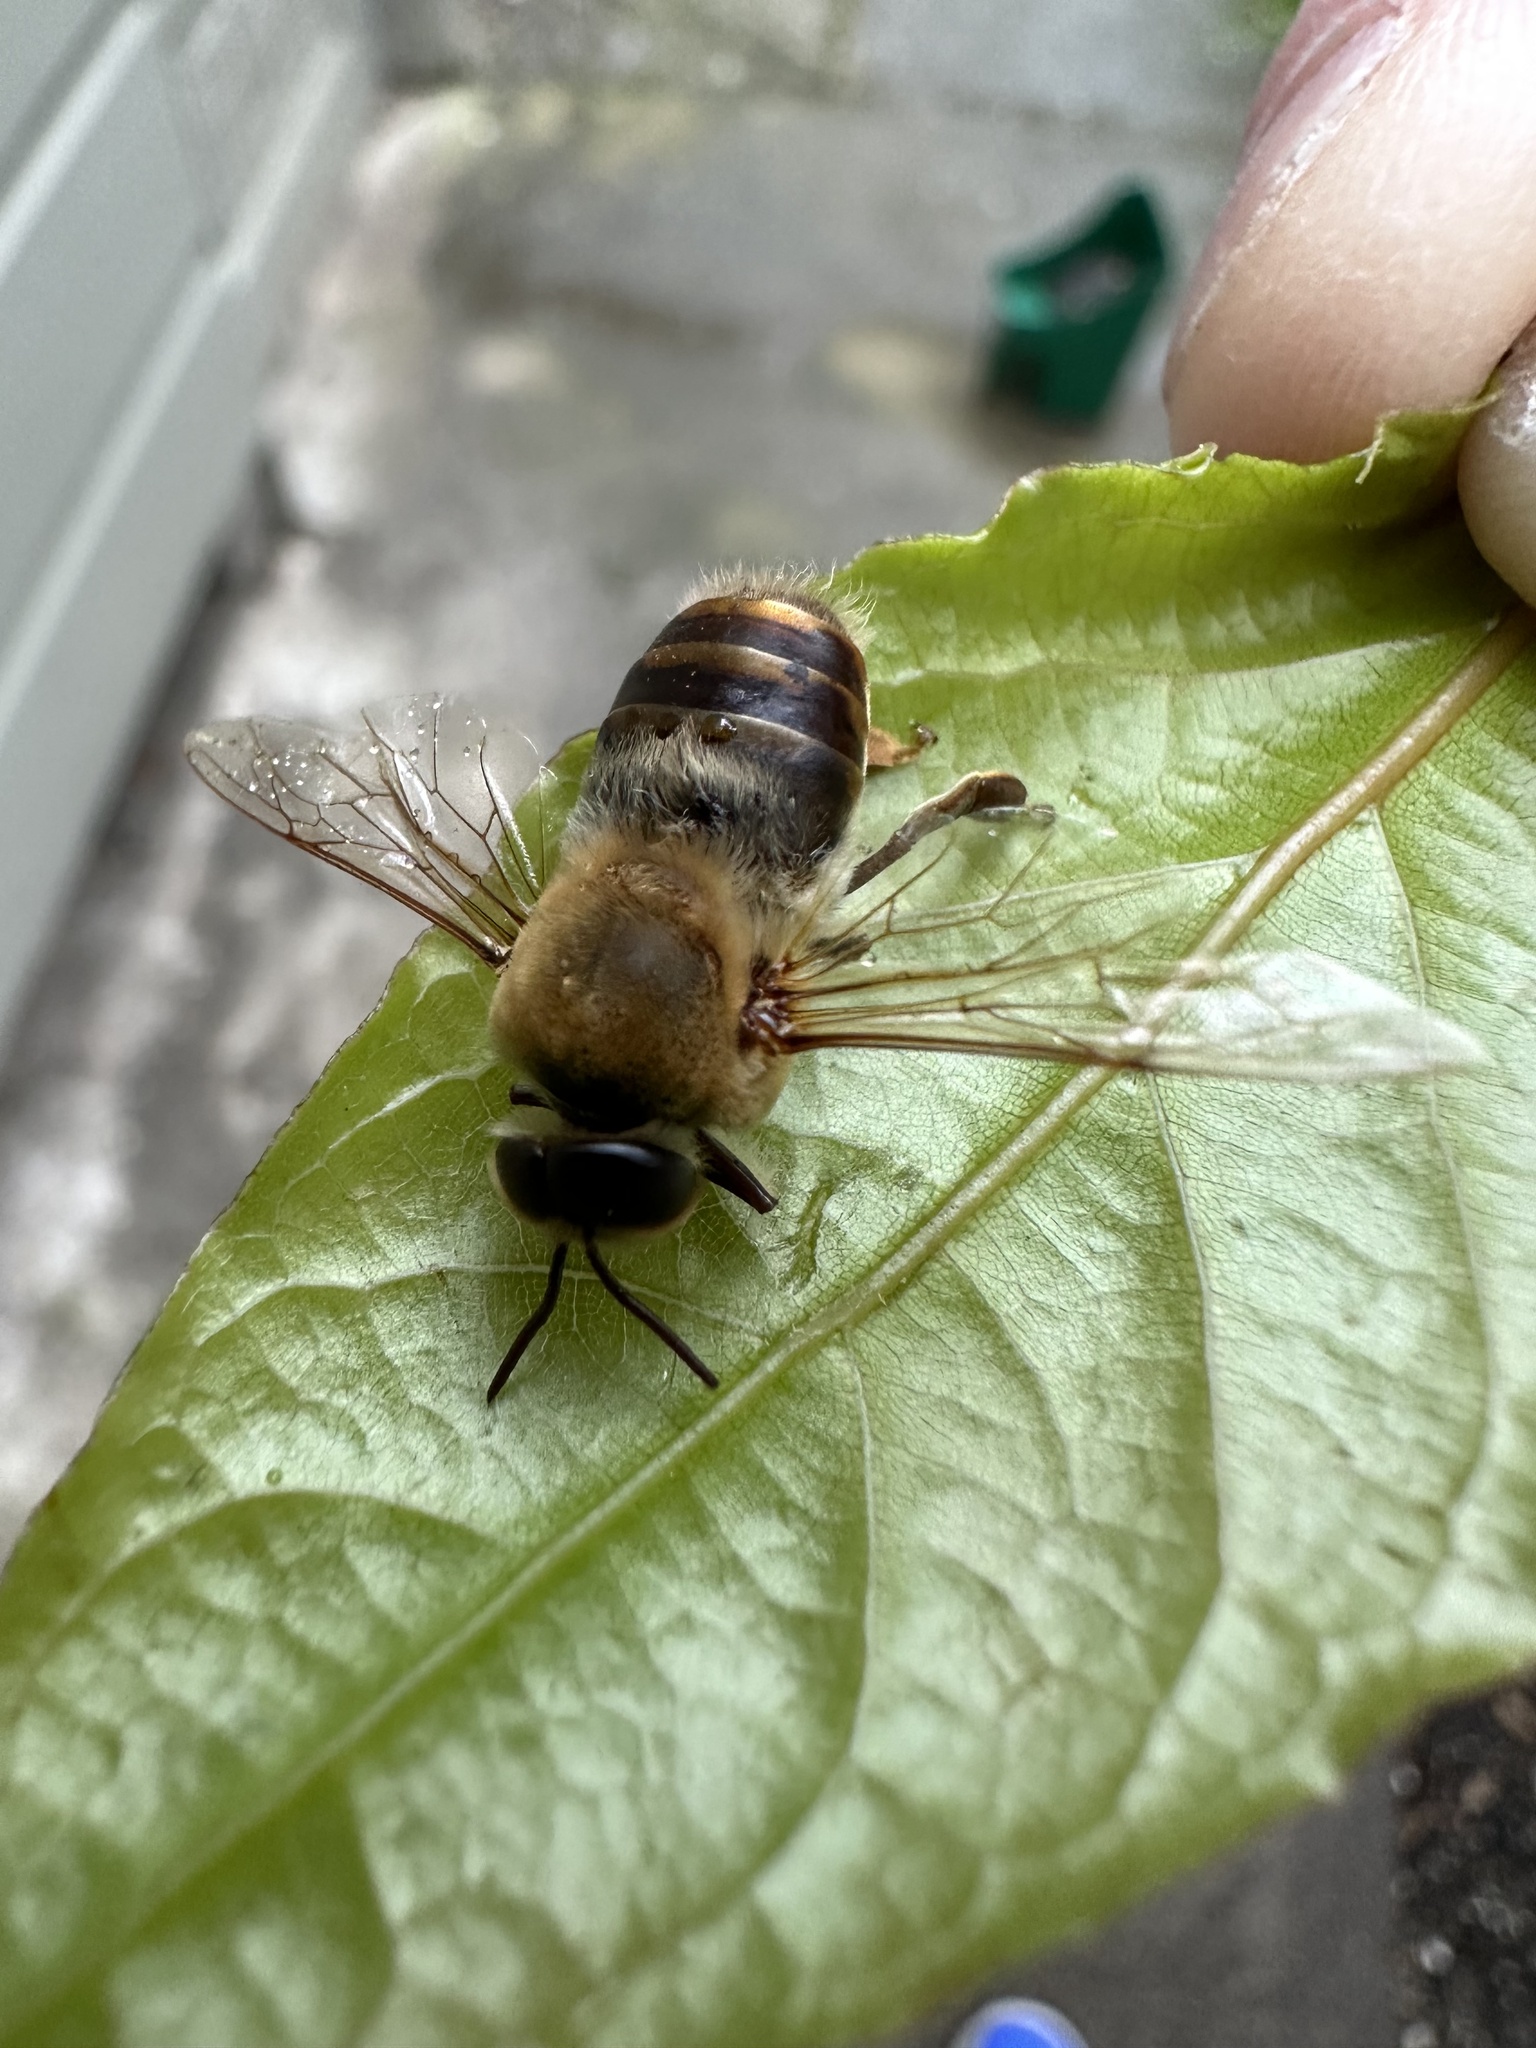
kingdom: Animalia
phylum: Arthropoda
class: Insecta
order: Hymenoptera
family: Apidae
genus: Apis
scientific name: Apis mellifera
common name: Honey bee
